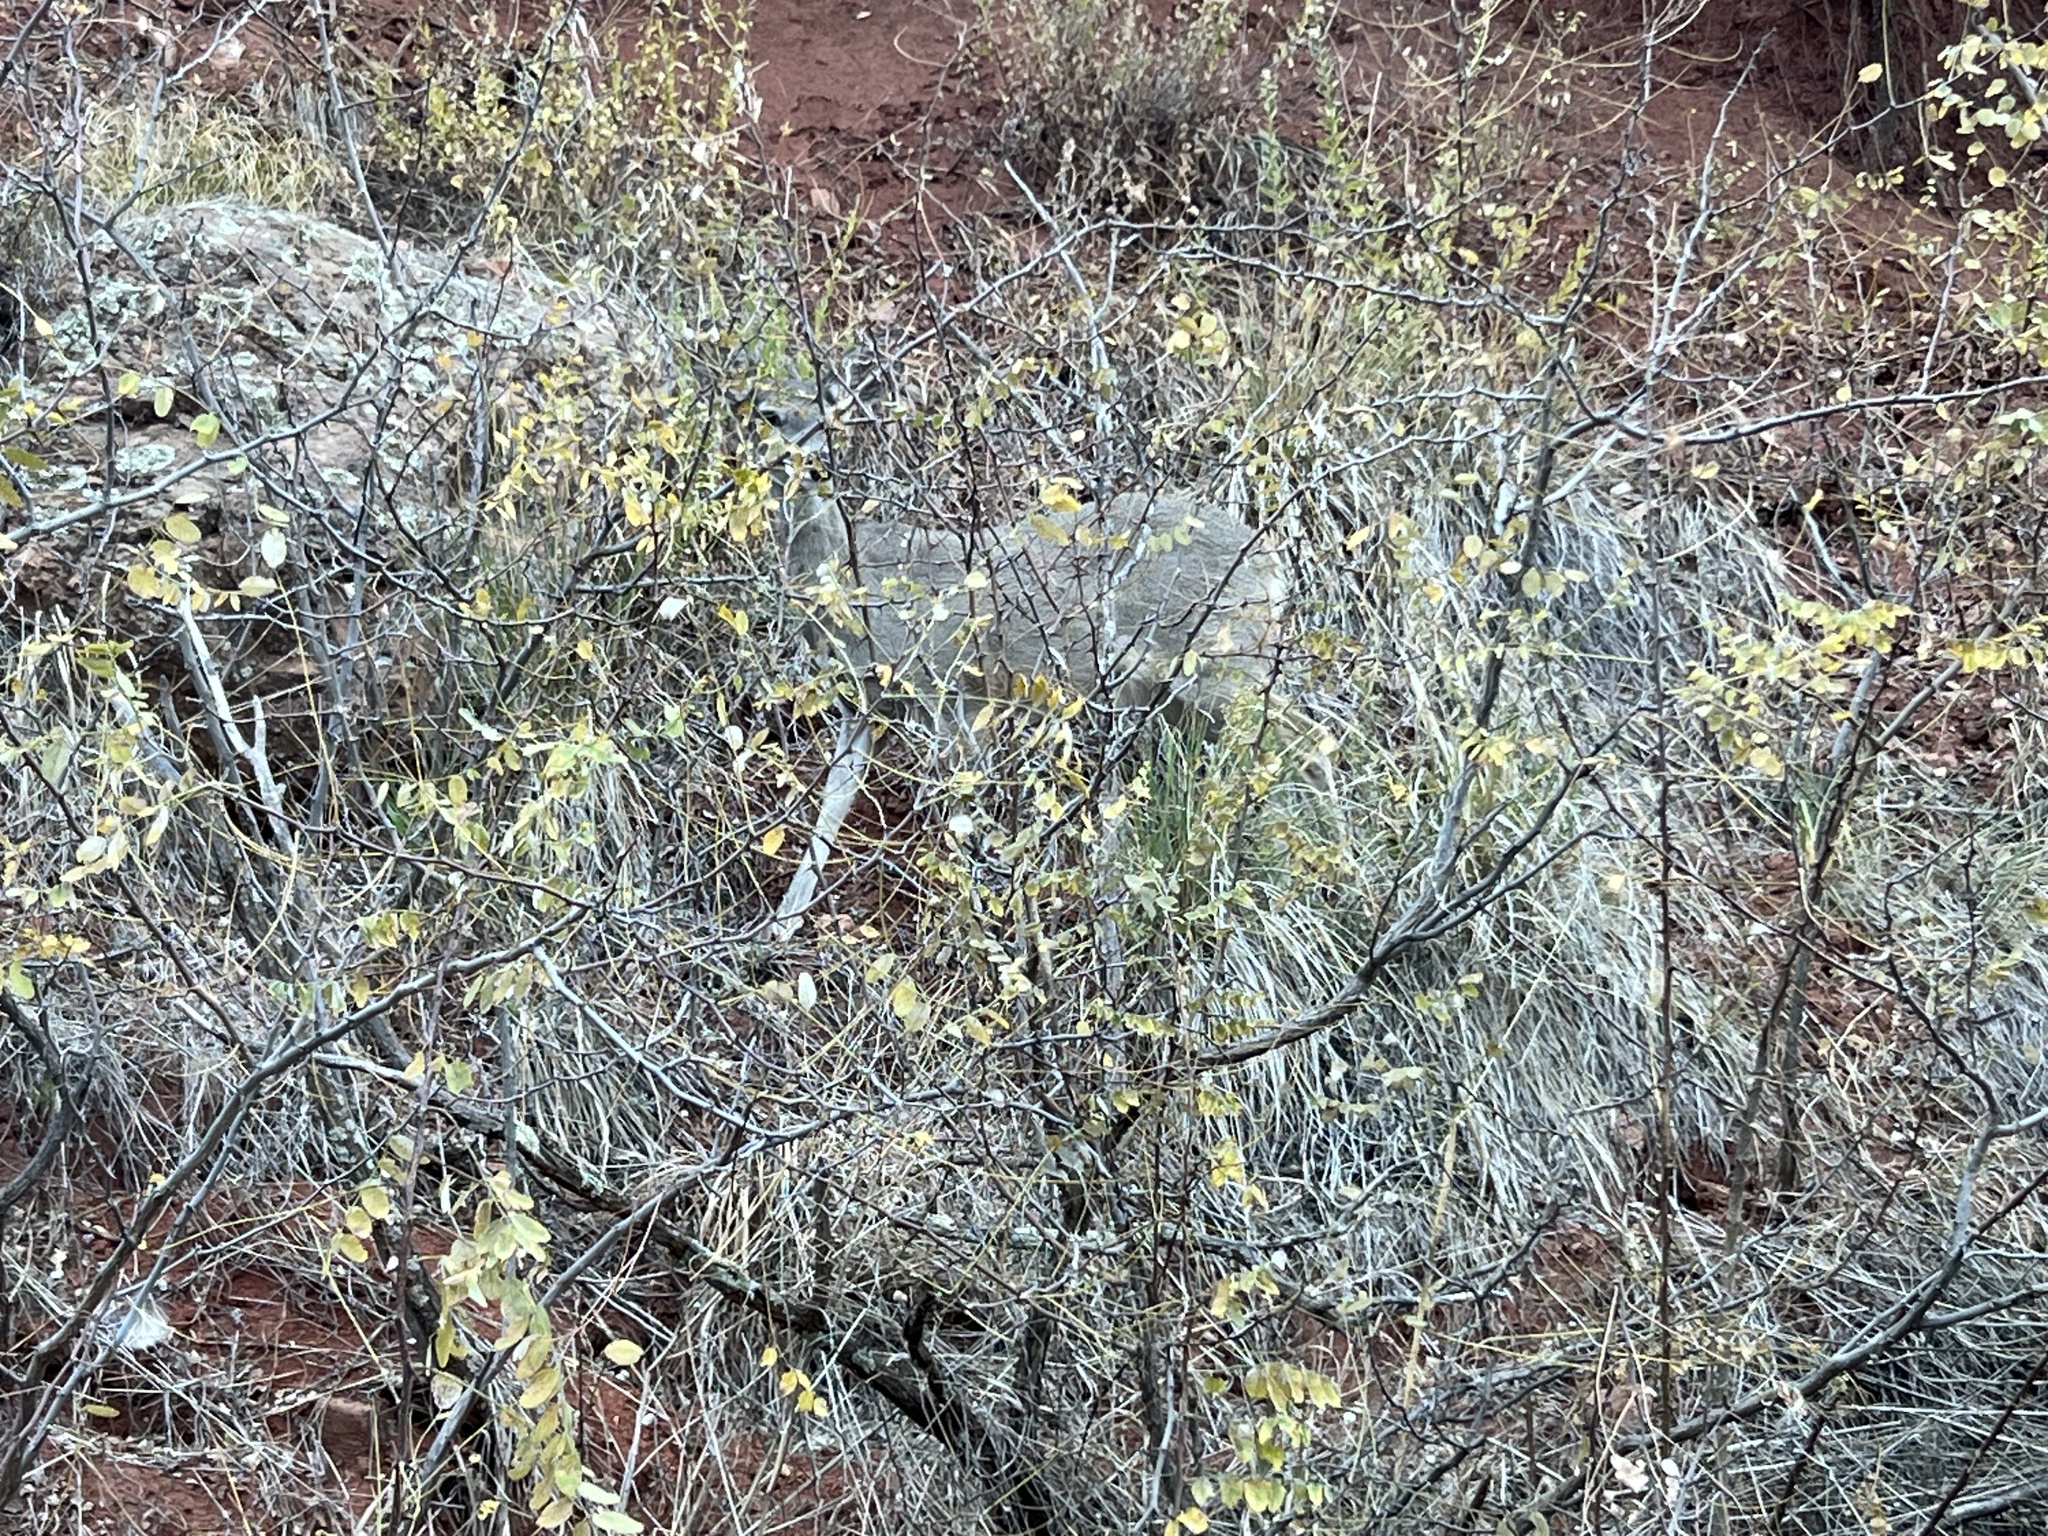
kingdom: Animalia
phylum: Chordata
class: Mammalia
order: Artiodactyla
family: Cervidae
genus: Odocoileus
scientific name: Odocoileus virginianus
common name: White-tailed deer
